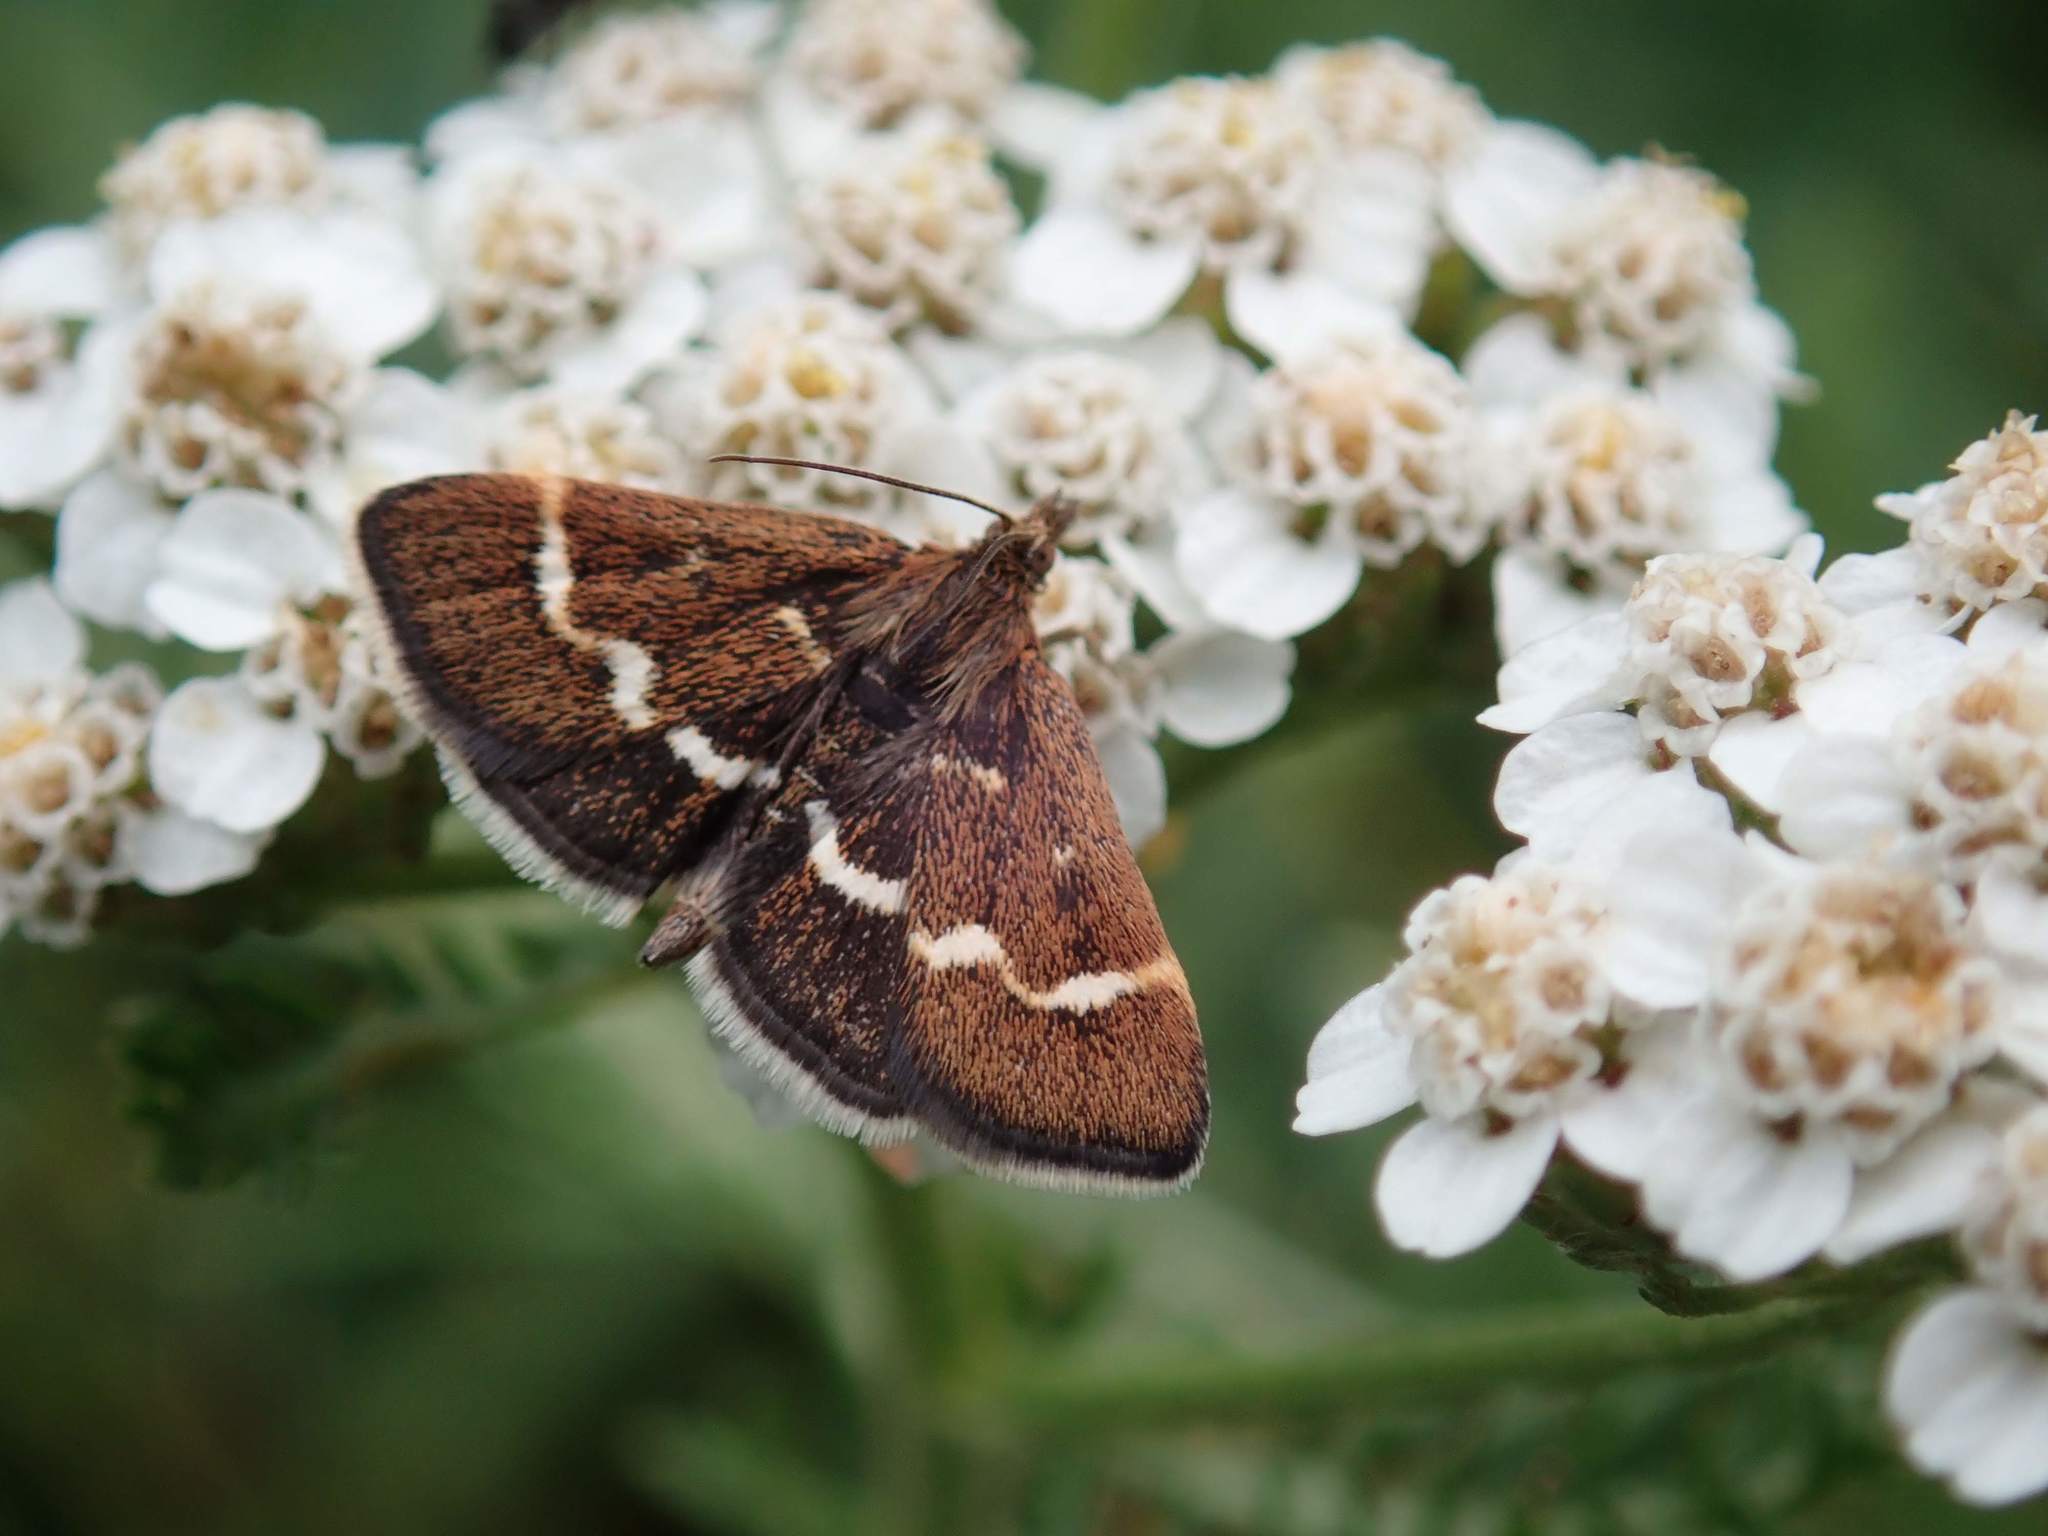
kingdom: Animalia
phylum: Arthropoda
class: Insecta
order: Lepidoptera
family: Crambidae
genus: Pyrausta
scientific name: Pyrausta nigrata
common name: Wavy-barred sable
